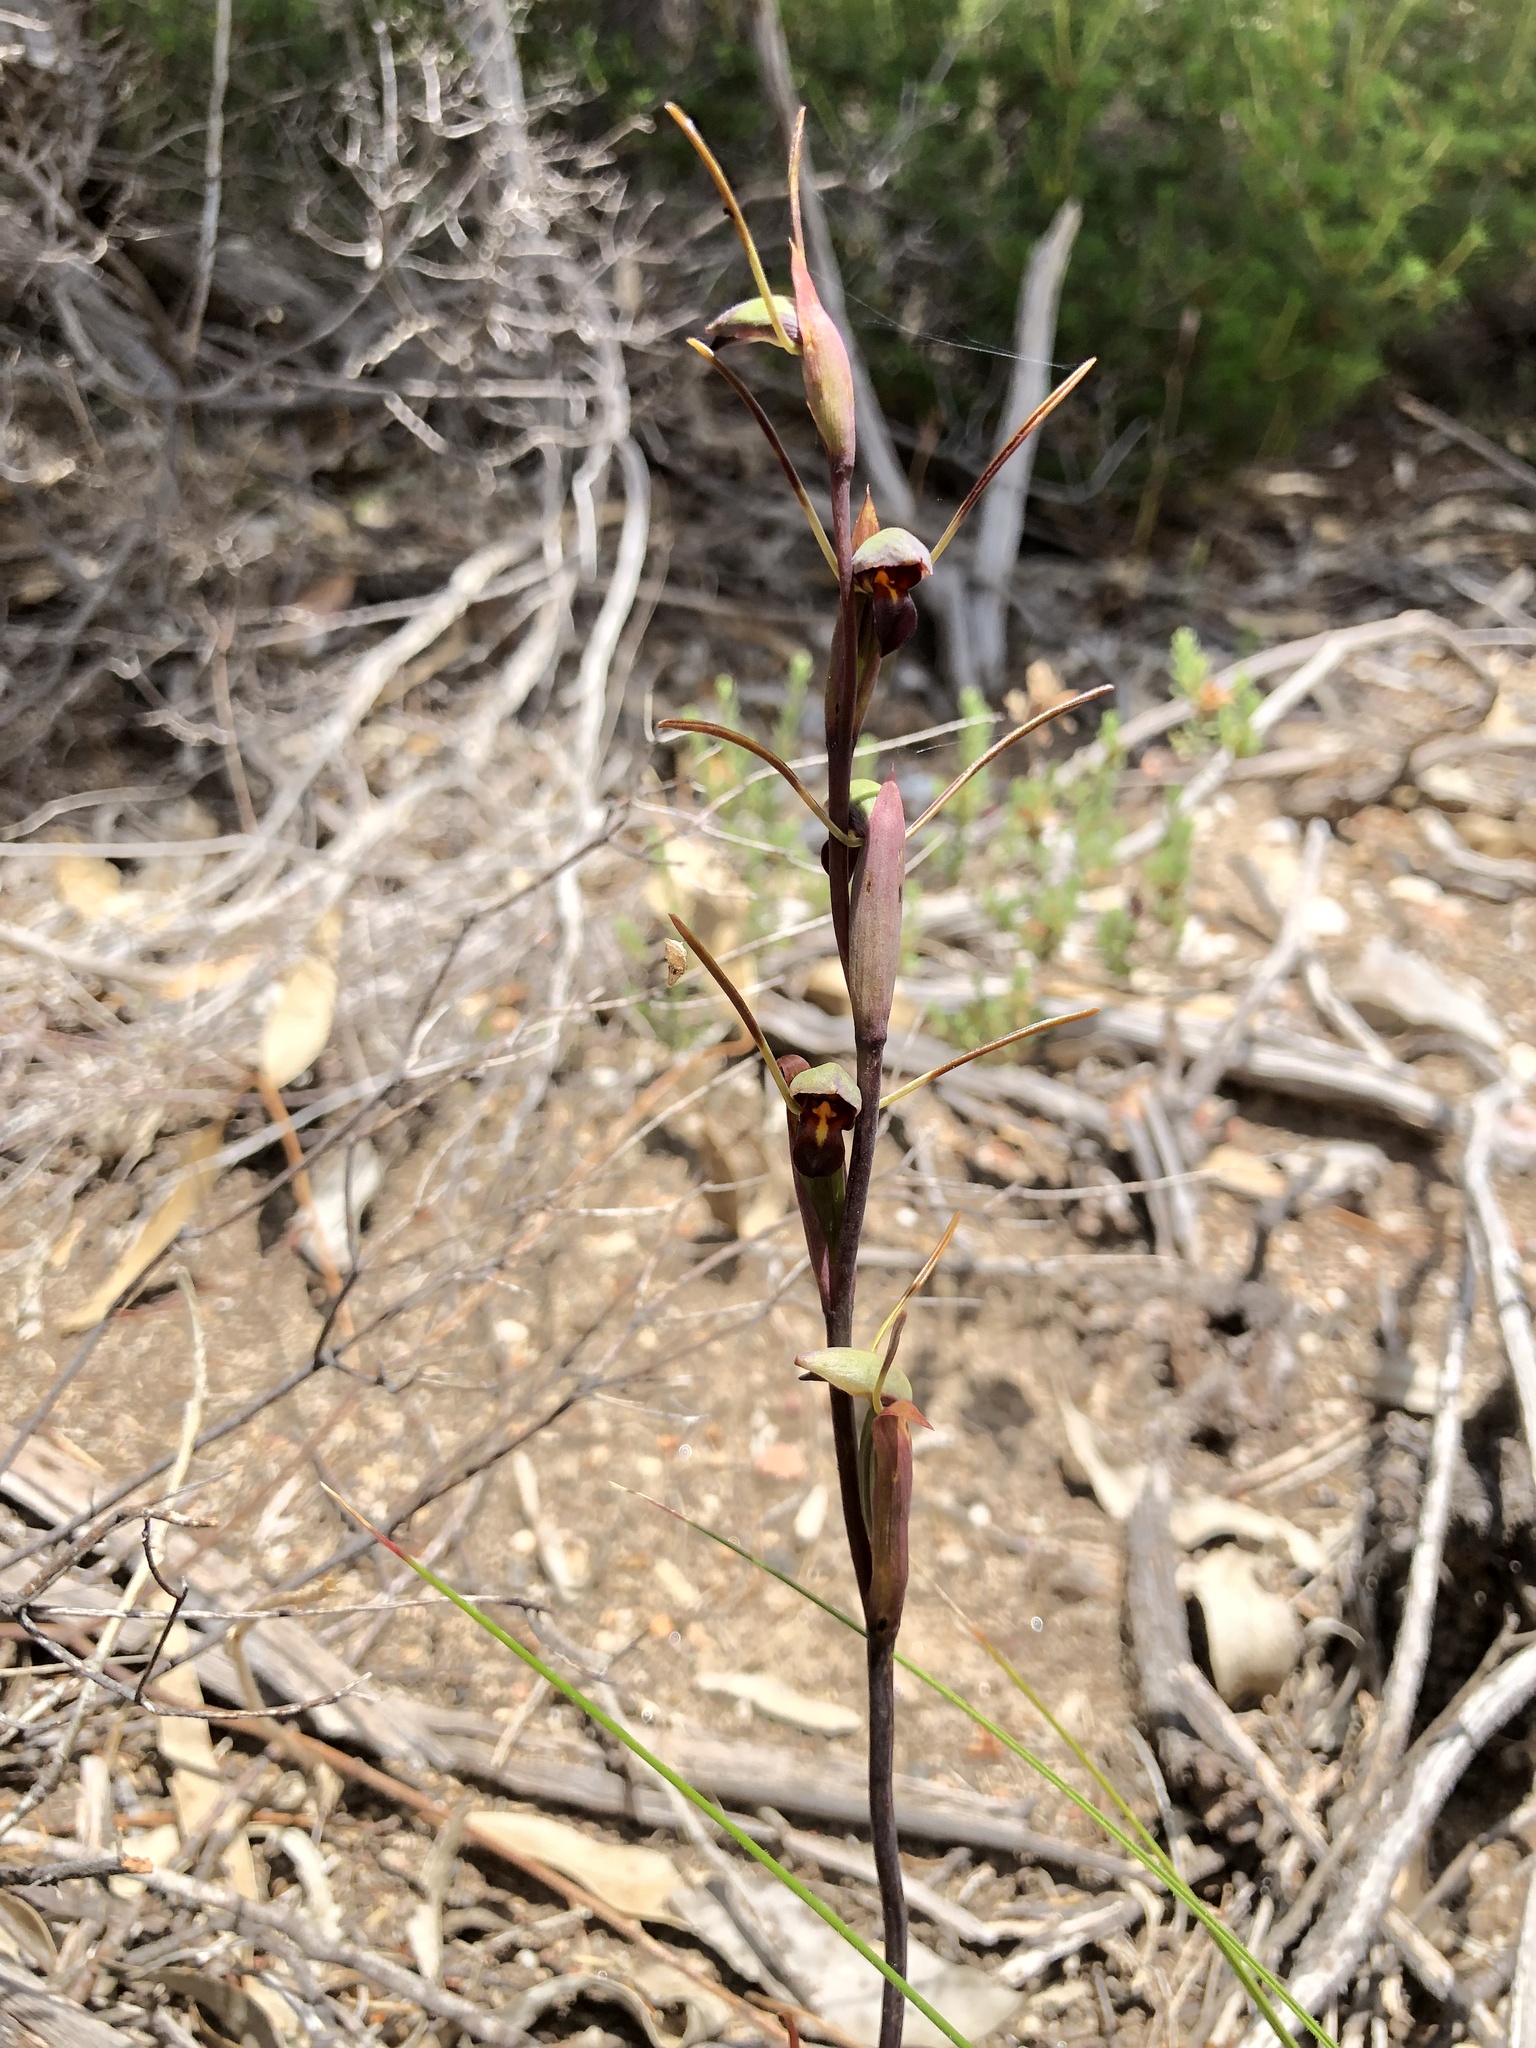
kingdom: Plantae
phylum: Tracheophyta
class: Liliopsida
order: Asparagales
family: Orchidaceae
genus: Orthoceras
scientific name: Orthoceras strictum
